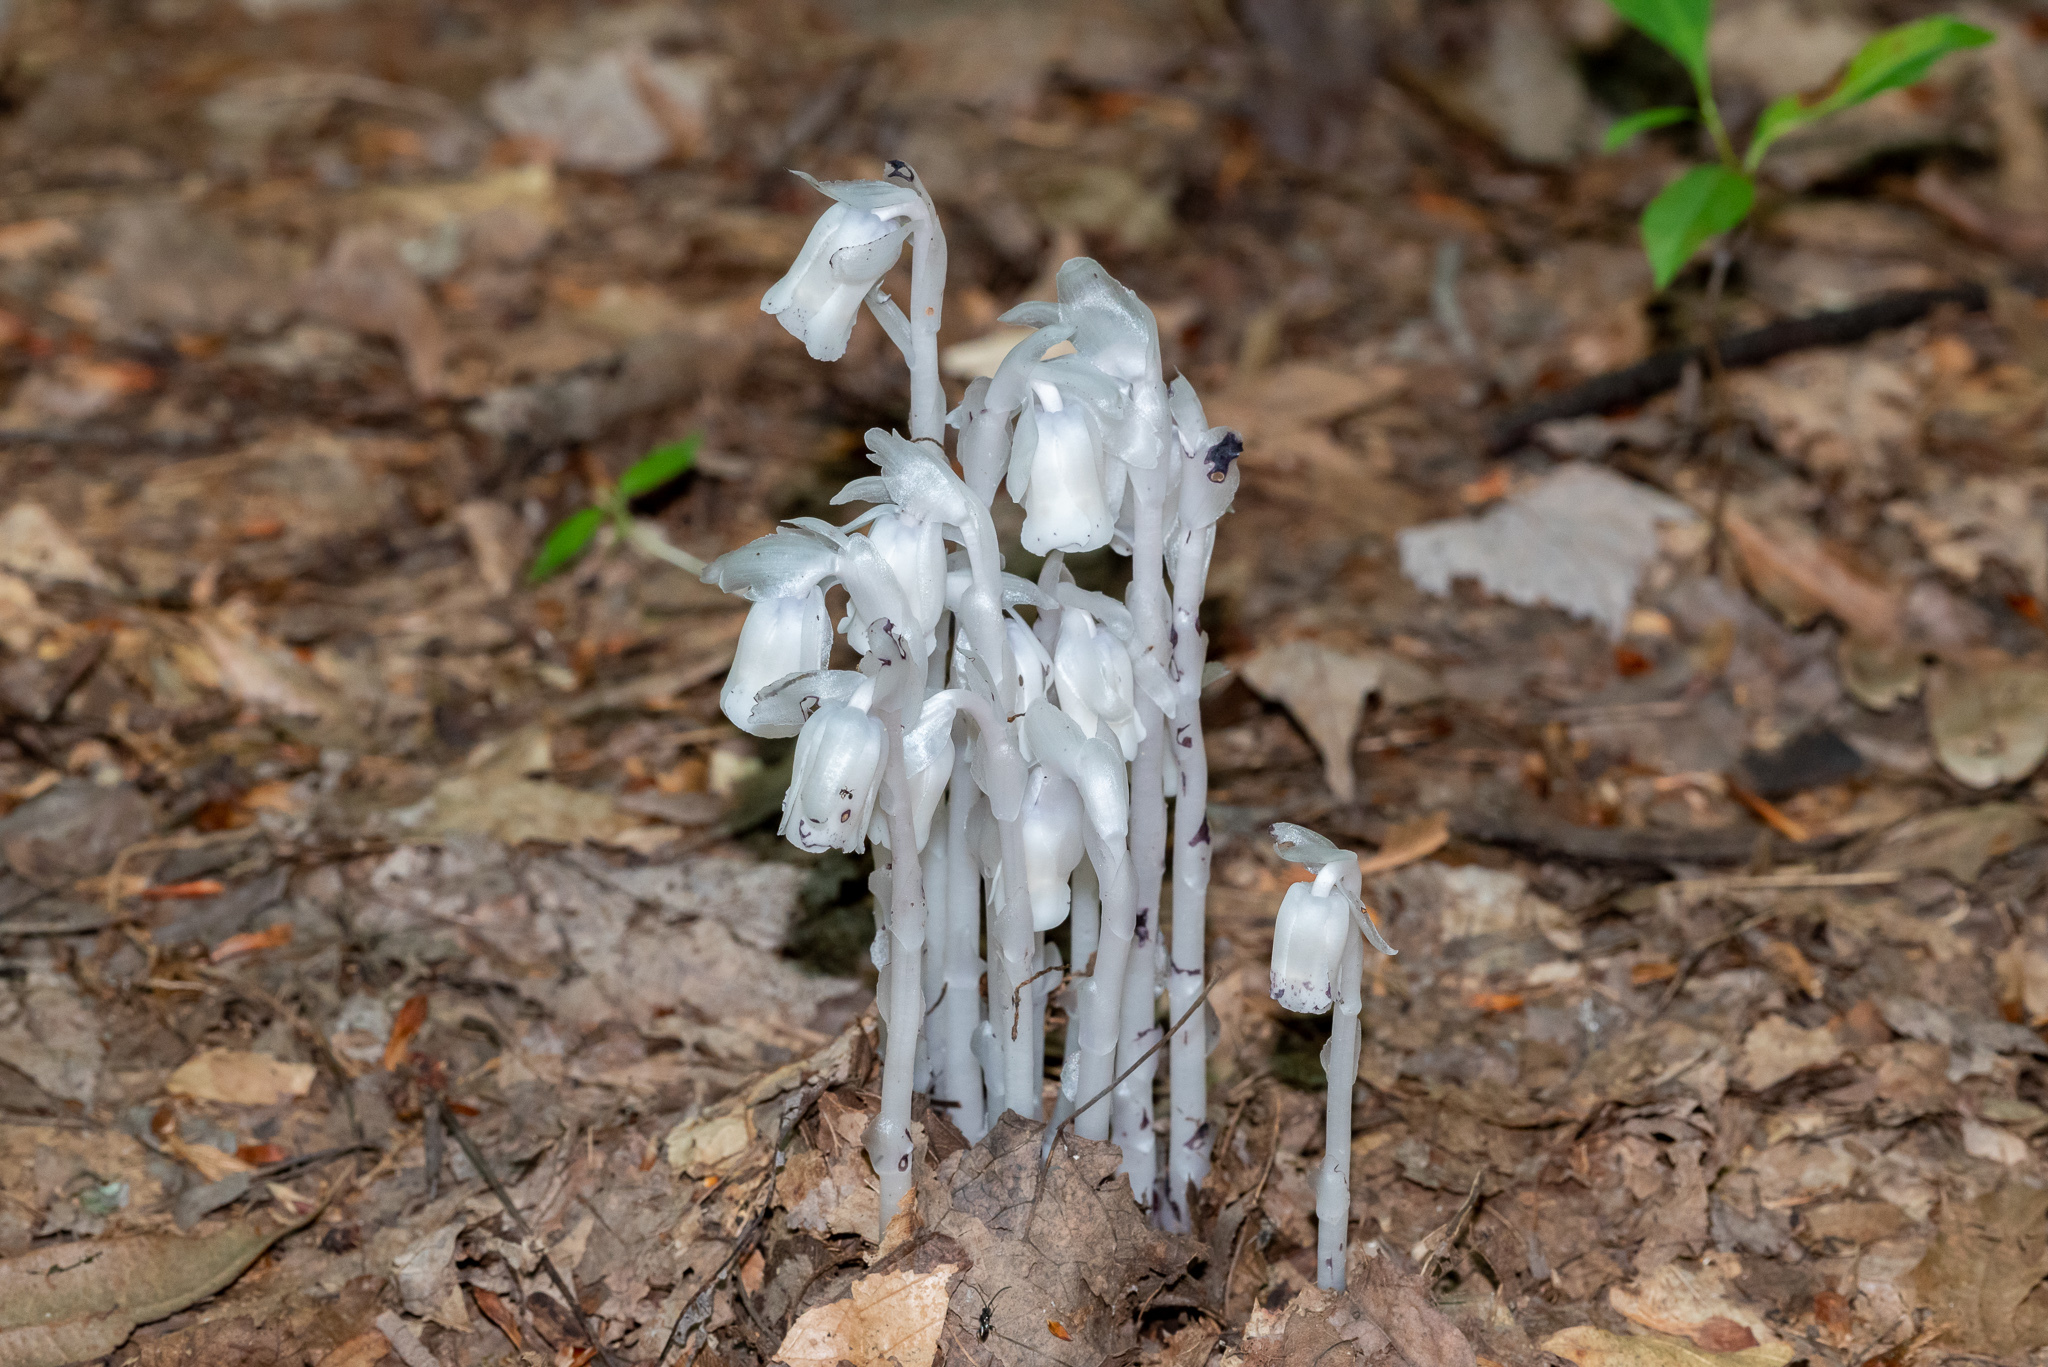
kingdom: Plantae
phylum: Tracheophyta
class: Magnoliopsida
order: Ericales
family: Ericaceae
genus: Monotropa
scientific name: Monotropa uniflora
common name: Convulsion root
